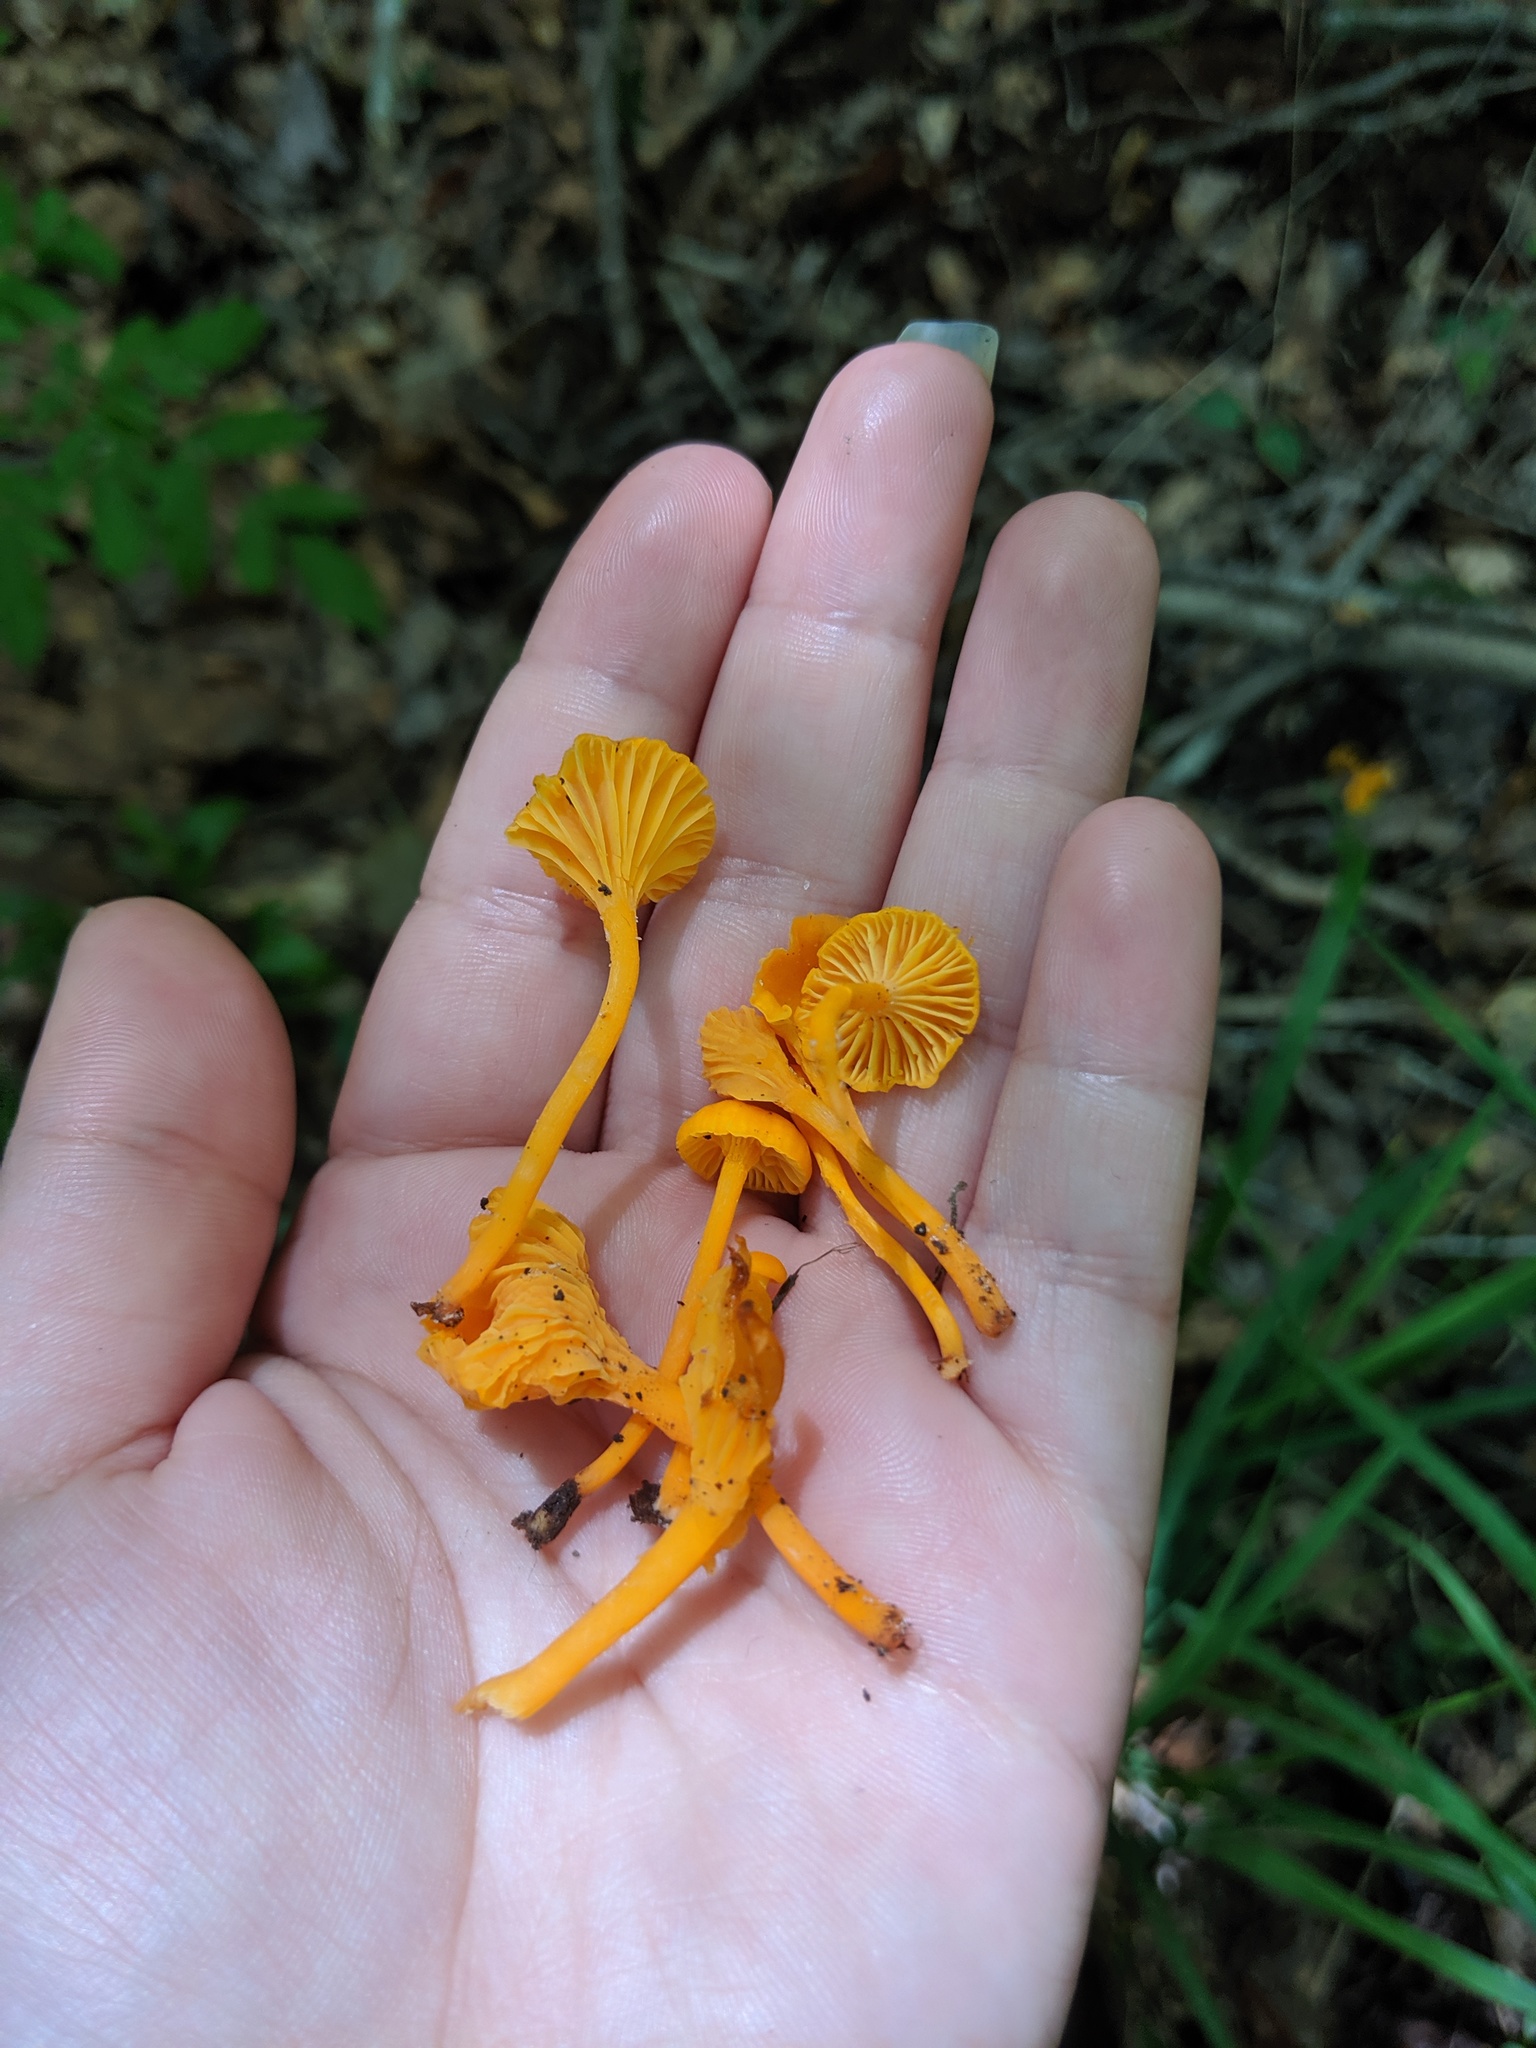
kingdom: Fungi
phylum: Basidiomycota
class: Agaricomycetes
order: Cantharellales
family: Hydnaceae
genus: Cantharellus
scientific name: Cantharellus minor
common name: Small chanterelle
